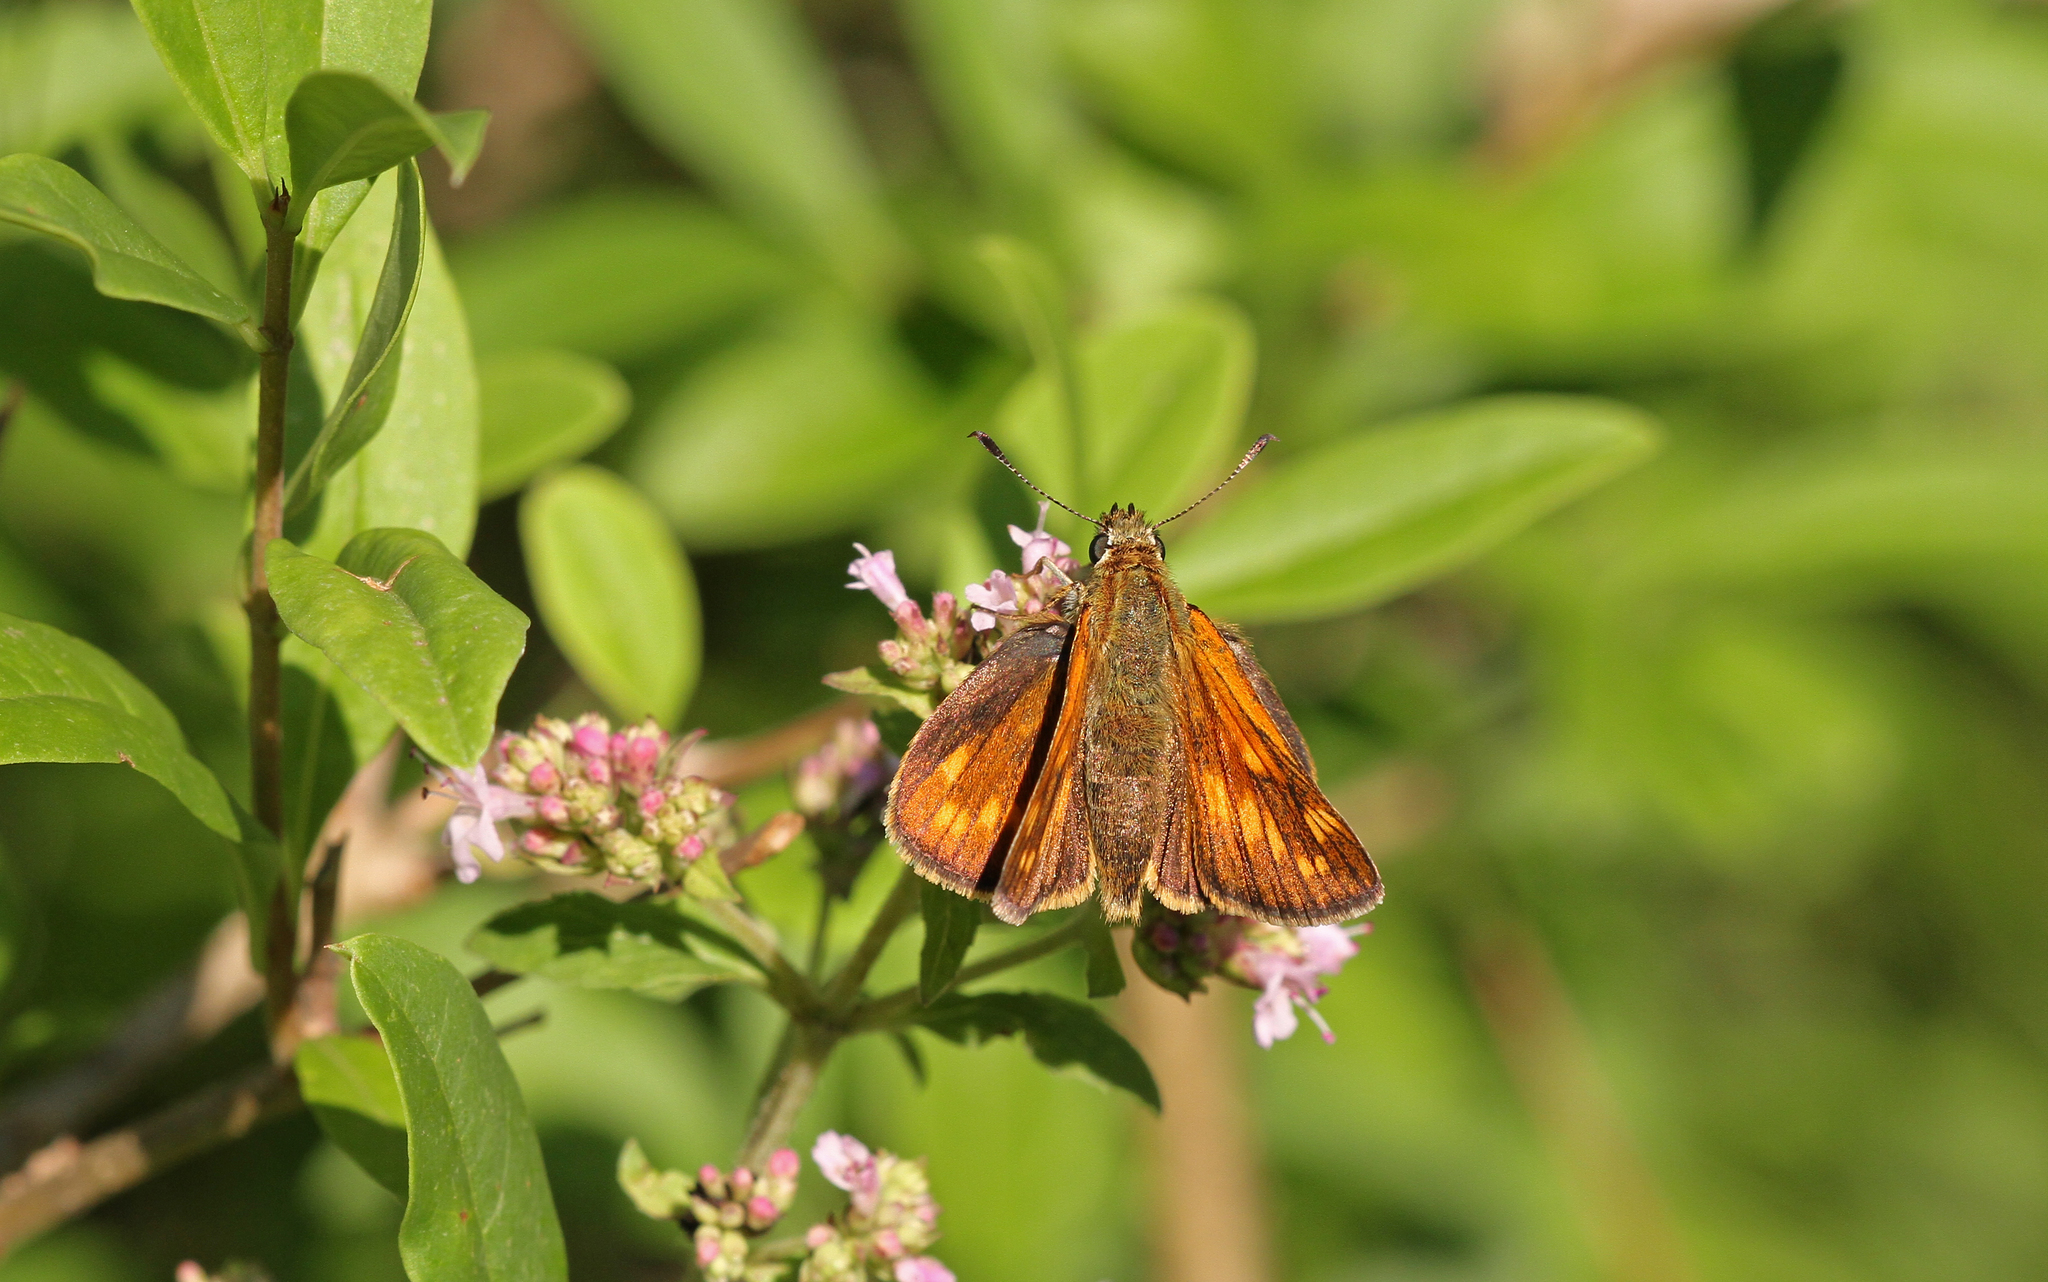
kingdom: Animalia
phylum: Arthropoda
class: Insecta
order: Lepidoptera
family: Hesperiidae
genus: Ochlodes
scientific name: Ochlodes venata
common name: Large skipper
